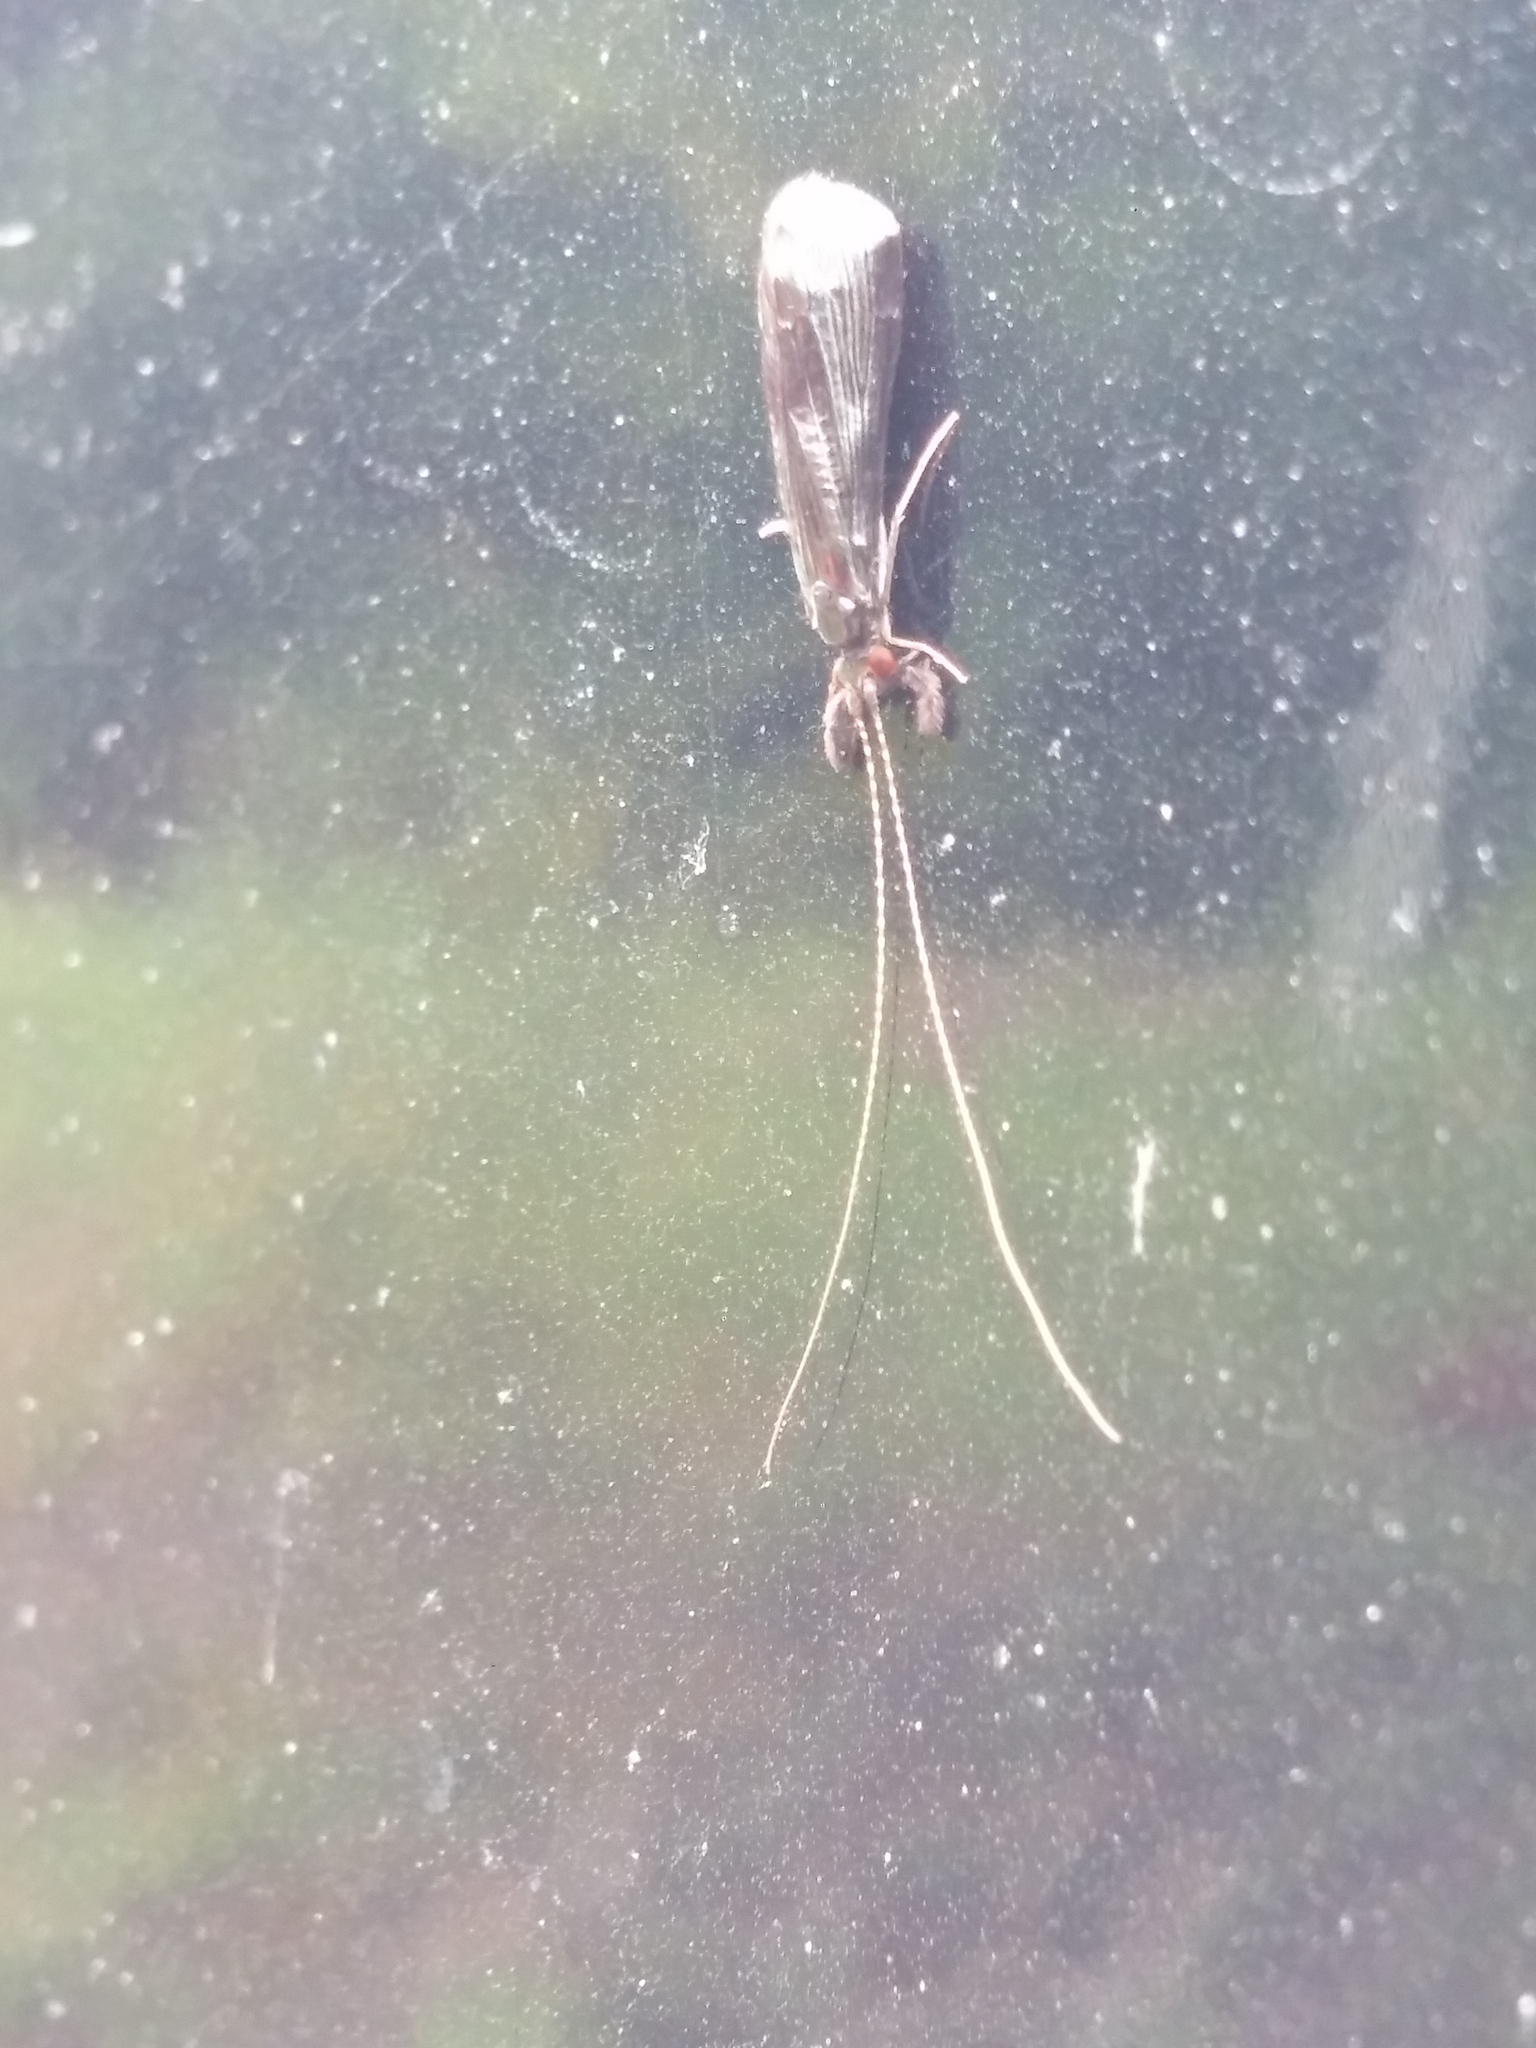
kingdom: Animalia
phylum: Arthropoda
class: Insecta
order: Trichoptera
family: Leptoceridae
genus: Mystacides
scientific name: Mystacides sepulchralis
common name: Black dancer caddisfly
